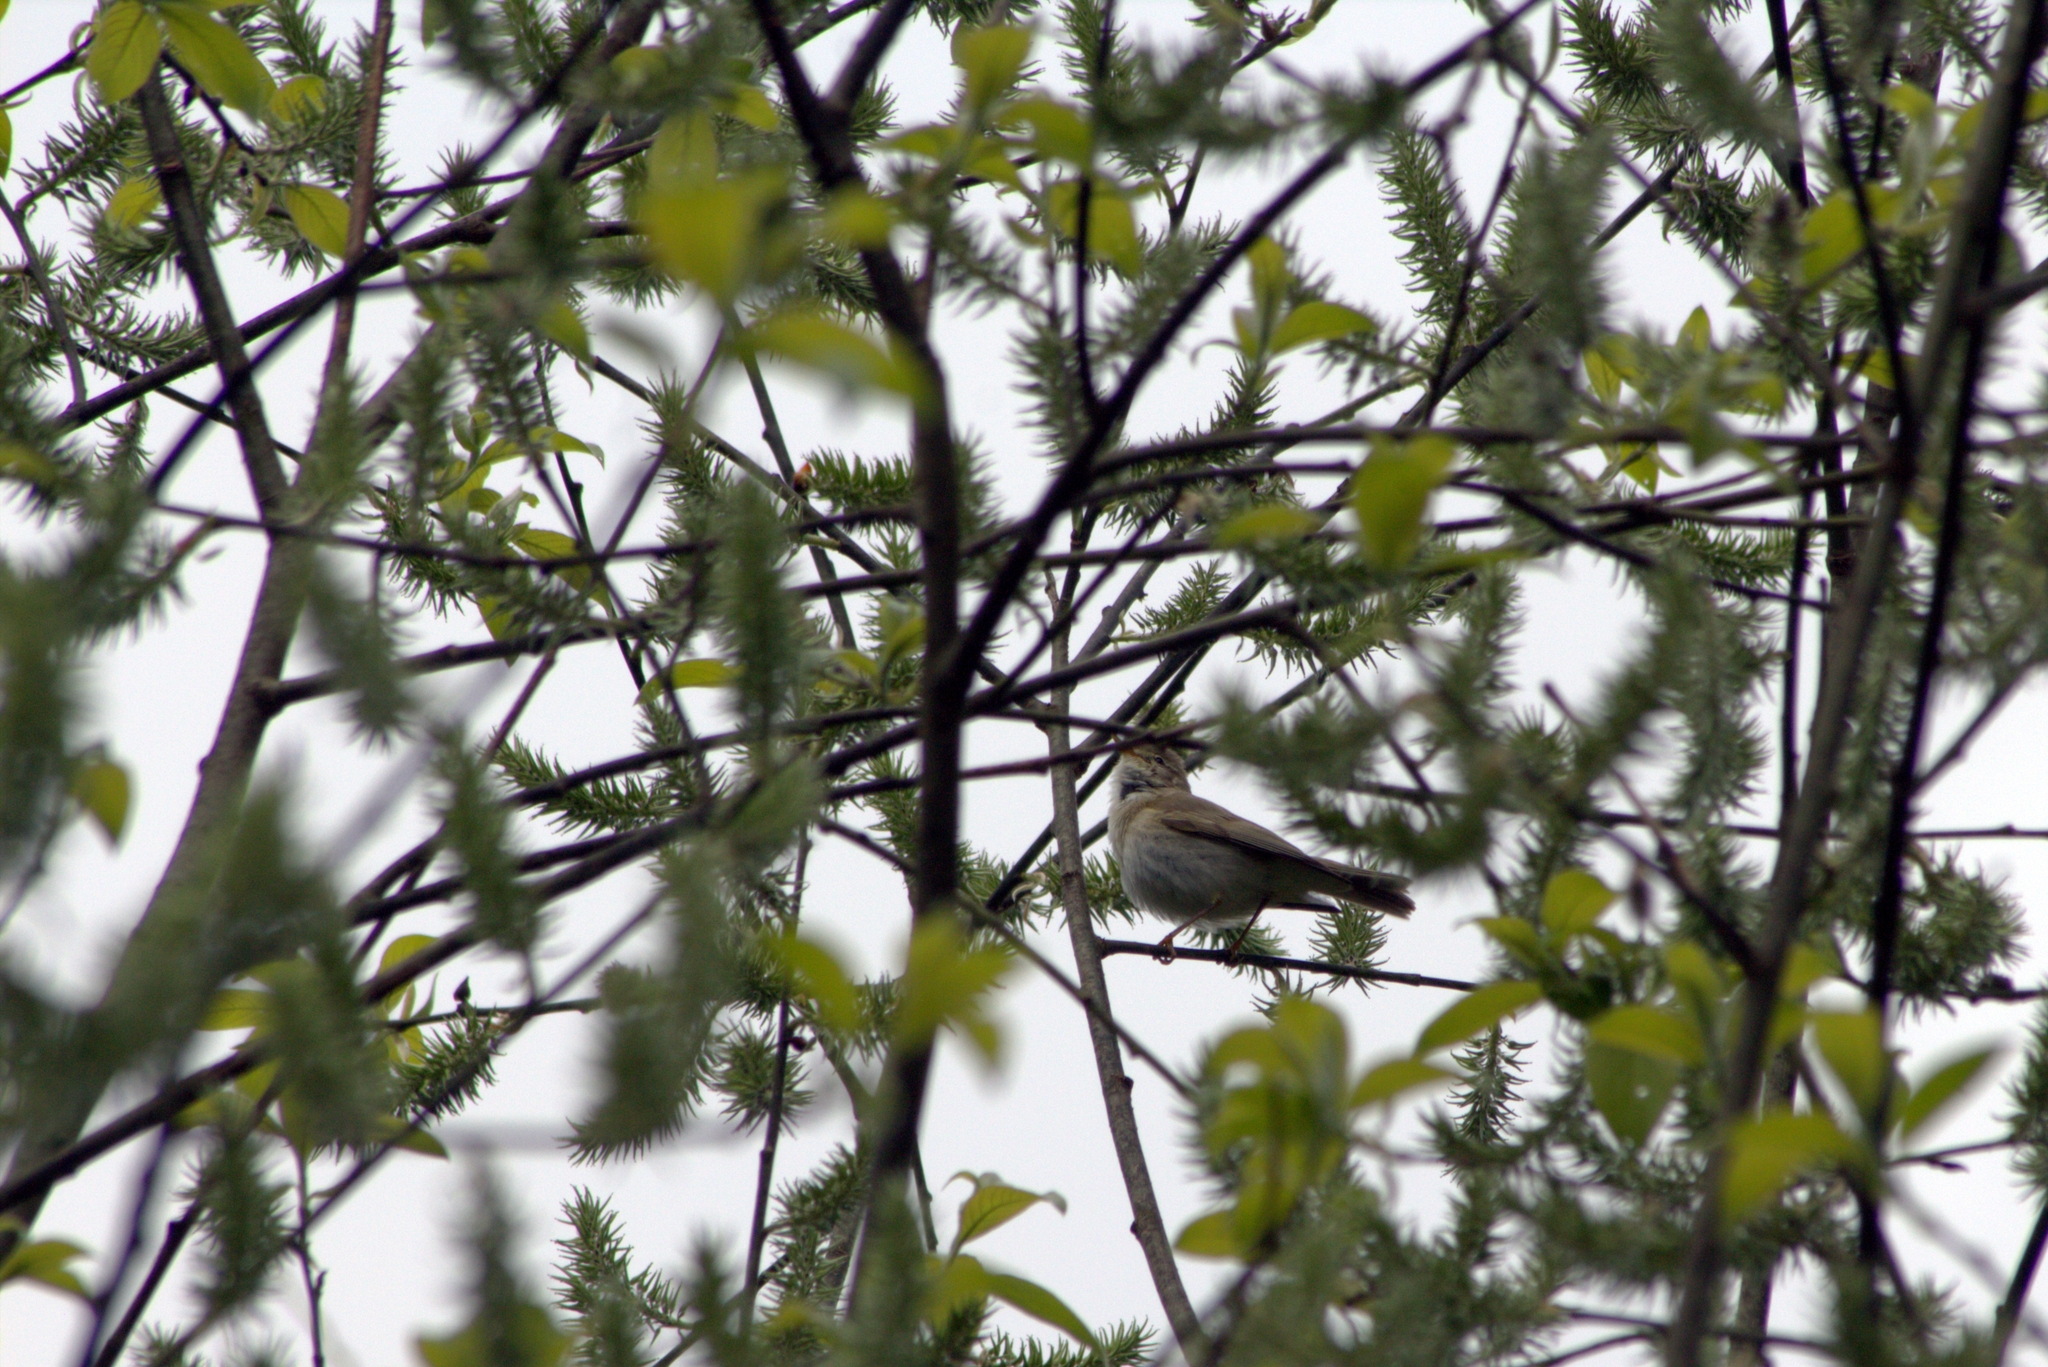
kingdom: Animalia
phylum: Chordata
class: Aves
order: Passeriformes
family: Phylloscopidae
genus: Phylloscopus
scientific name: Phylloscopus trochilus
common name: Willow warbler
